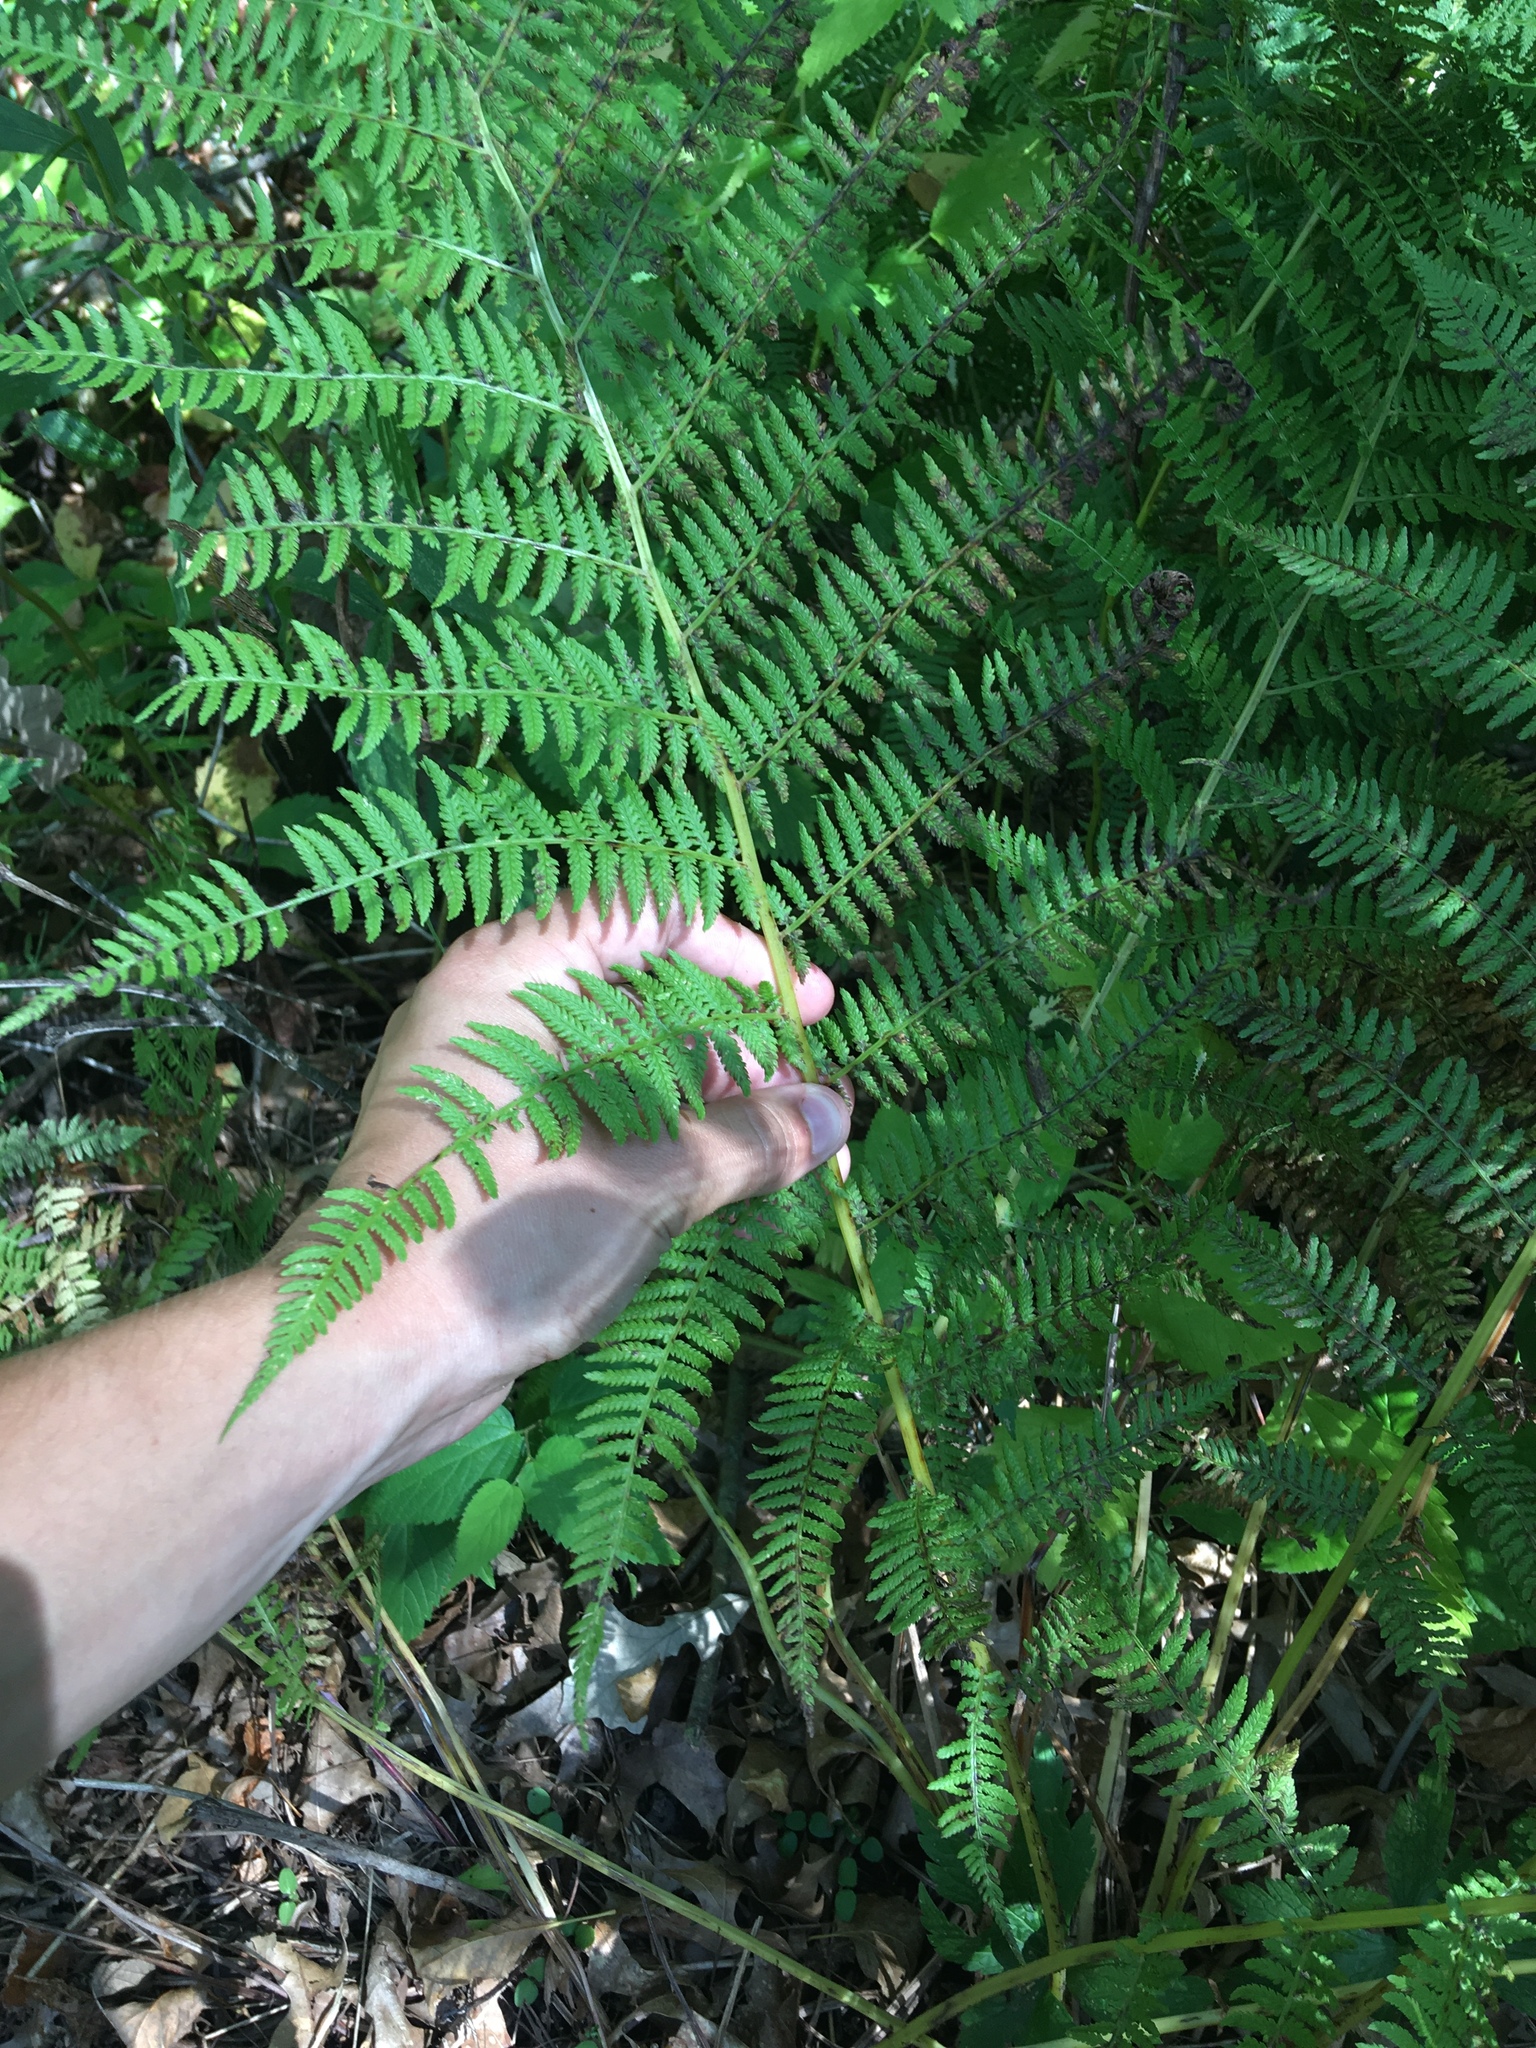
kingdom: Plantae
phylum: Tracheophyta
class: Polypodiopsida
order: Polypodiales
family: Athyriaceae
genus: Athyrium
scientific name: Athyrium angustum
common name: Northern lady fern
